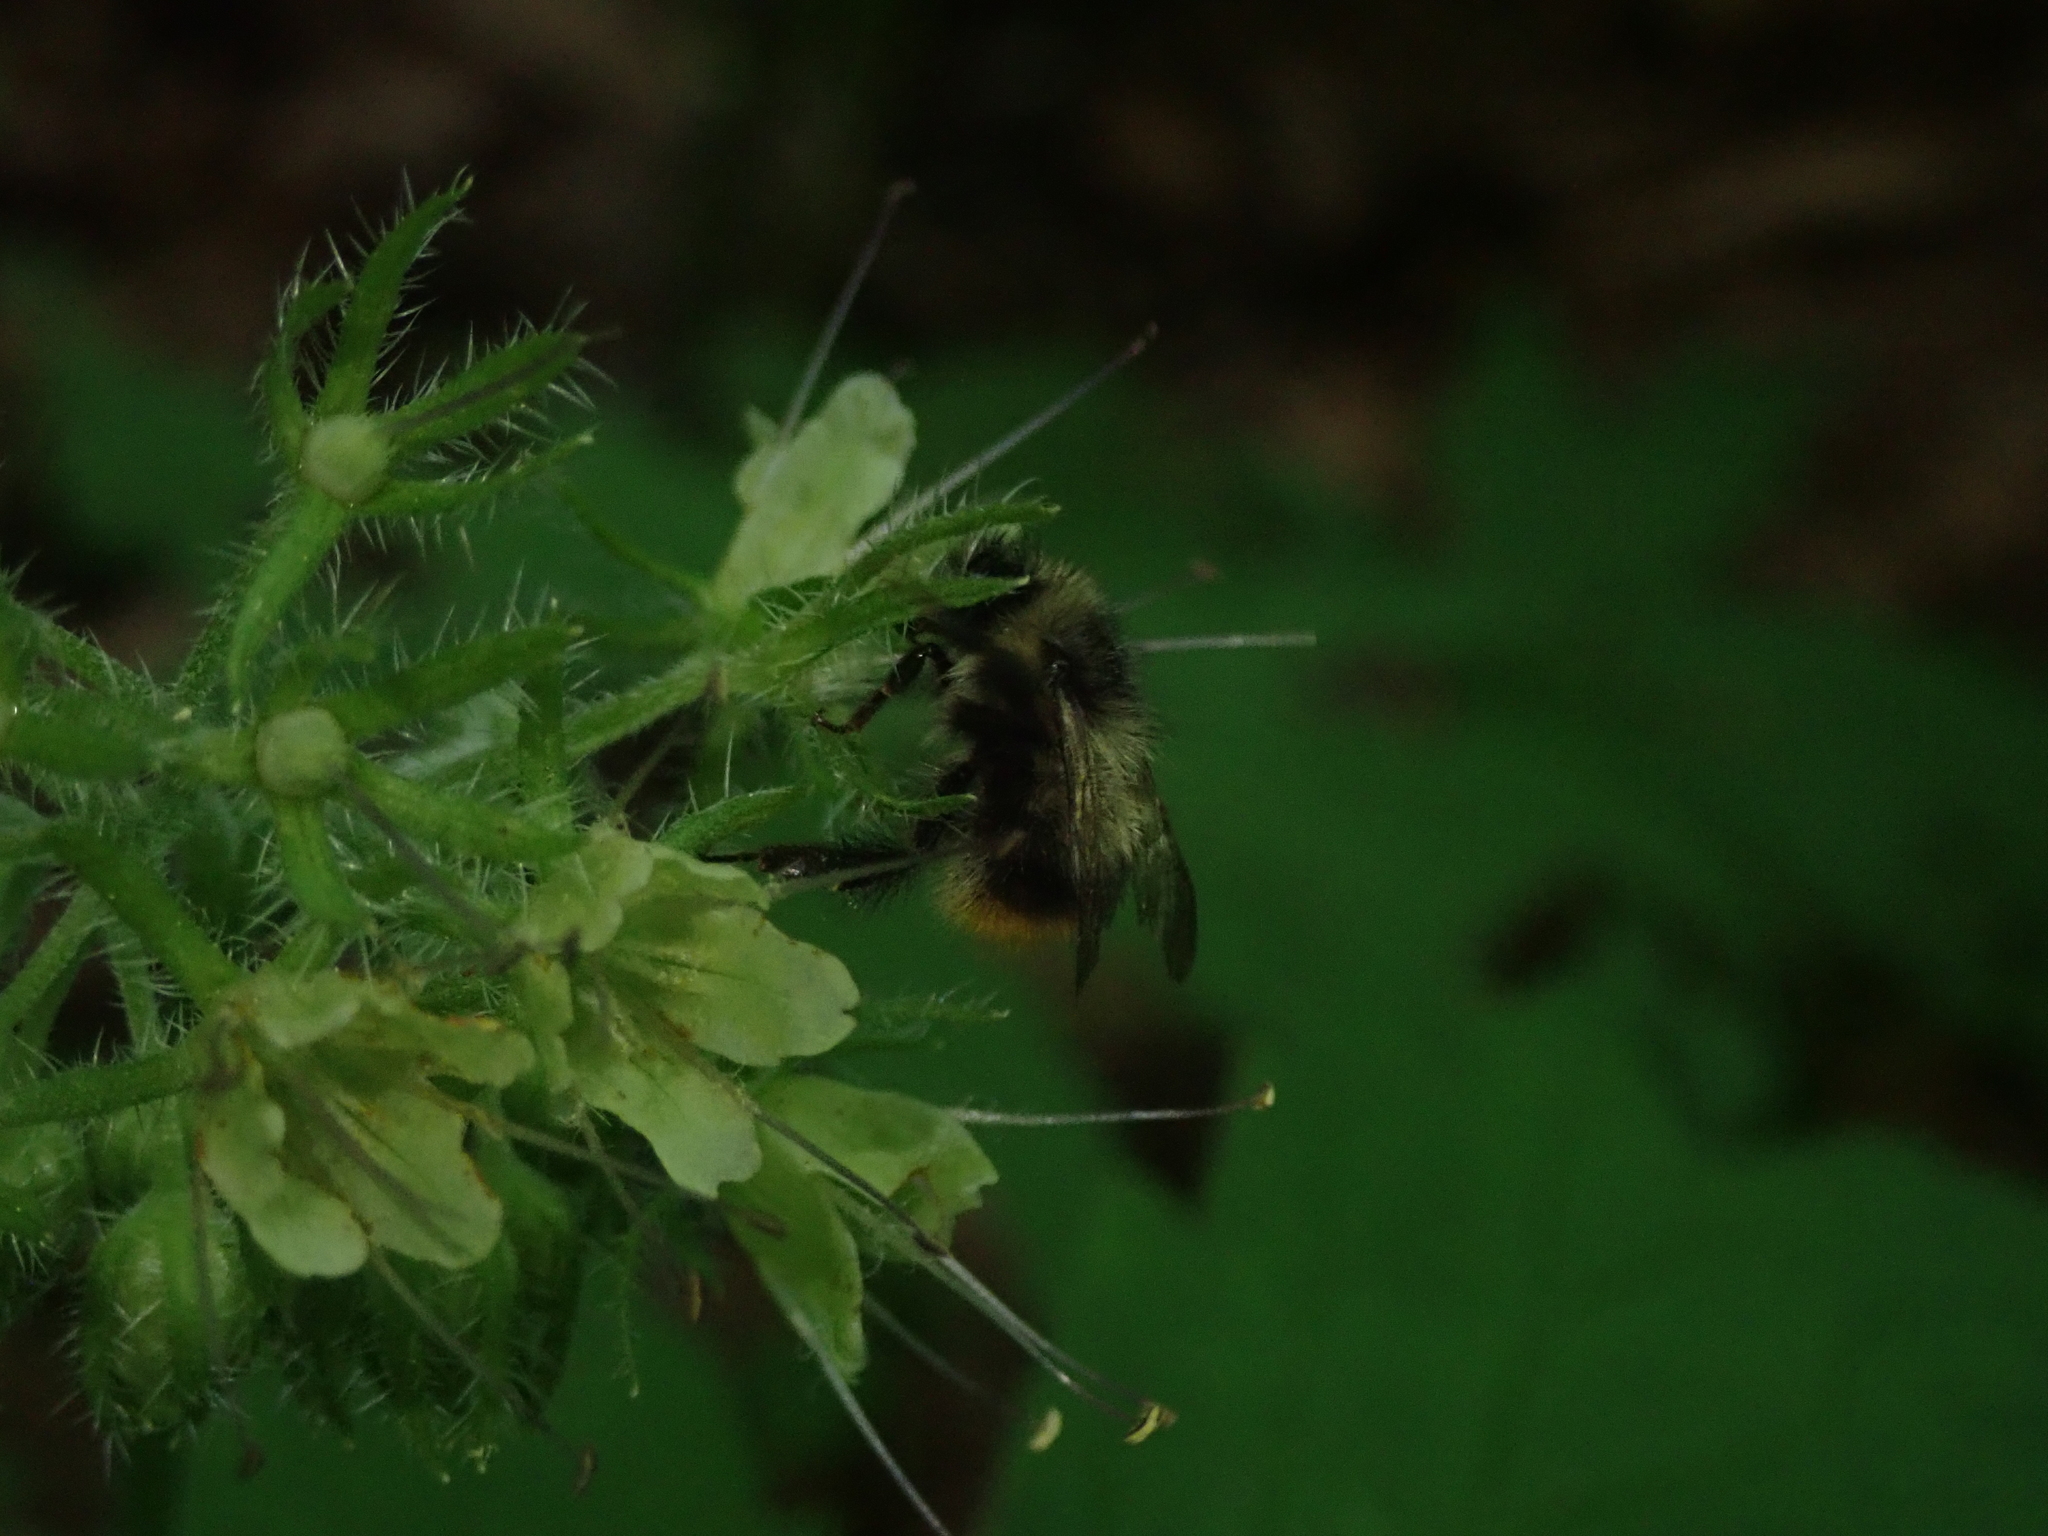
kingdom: Animalia
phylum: Arthropoda
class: Insecta
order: Hymenoptera
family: Apidae
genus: Bombus
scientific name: Bombus mixtus
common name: Fuzzy-horned bumble bee
